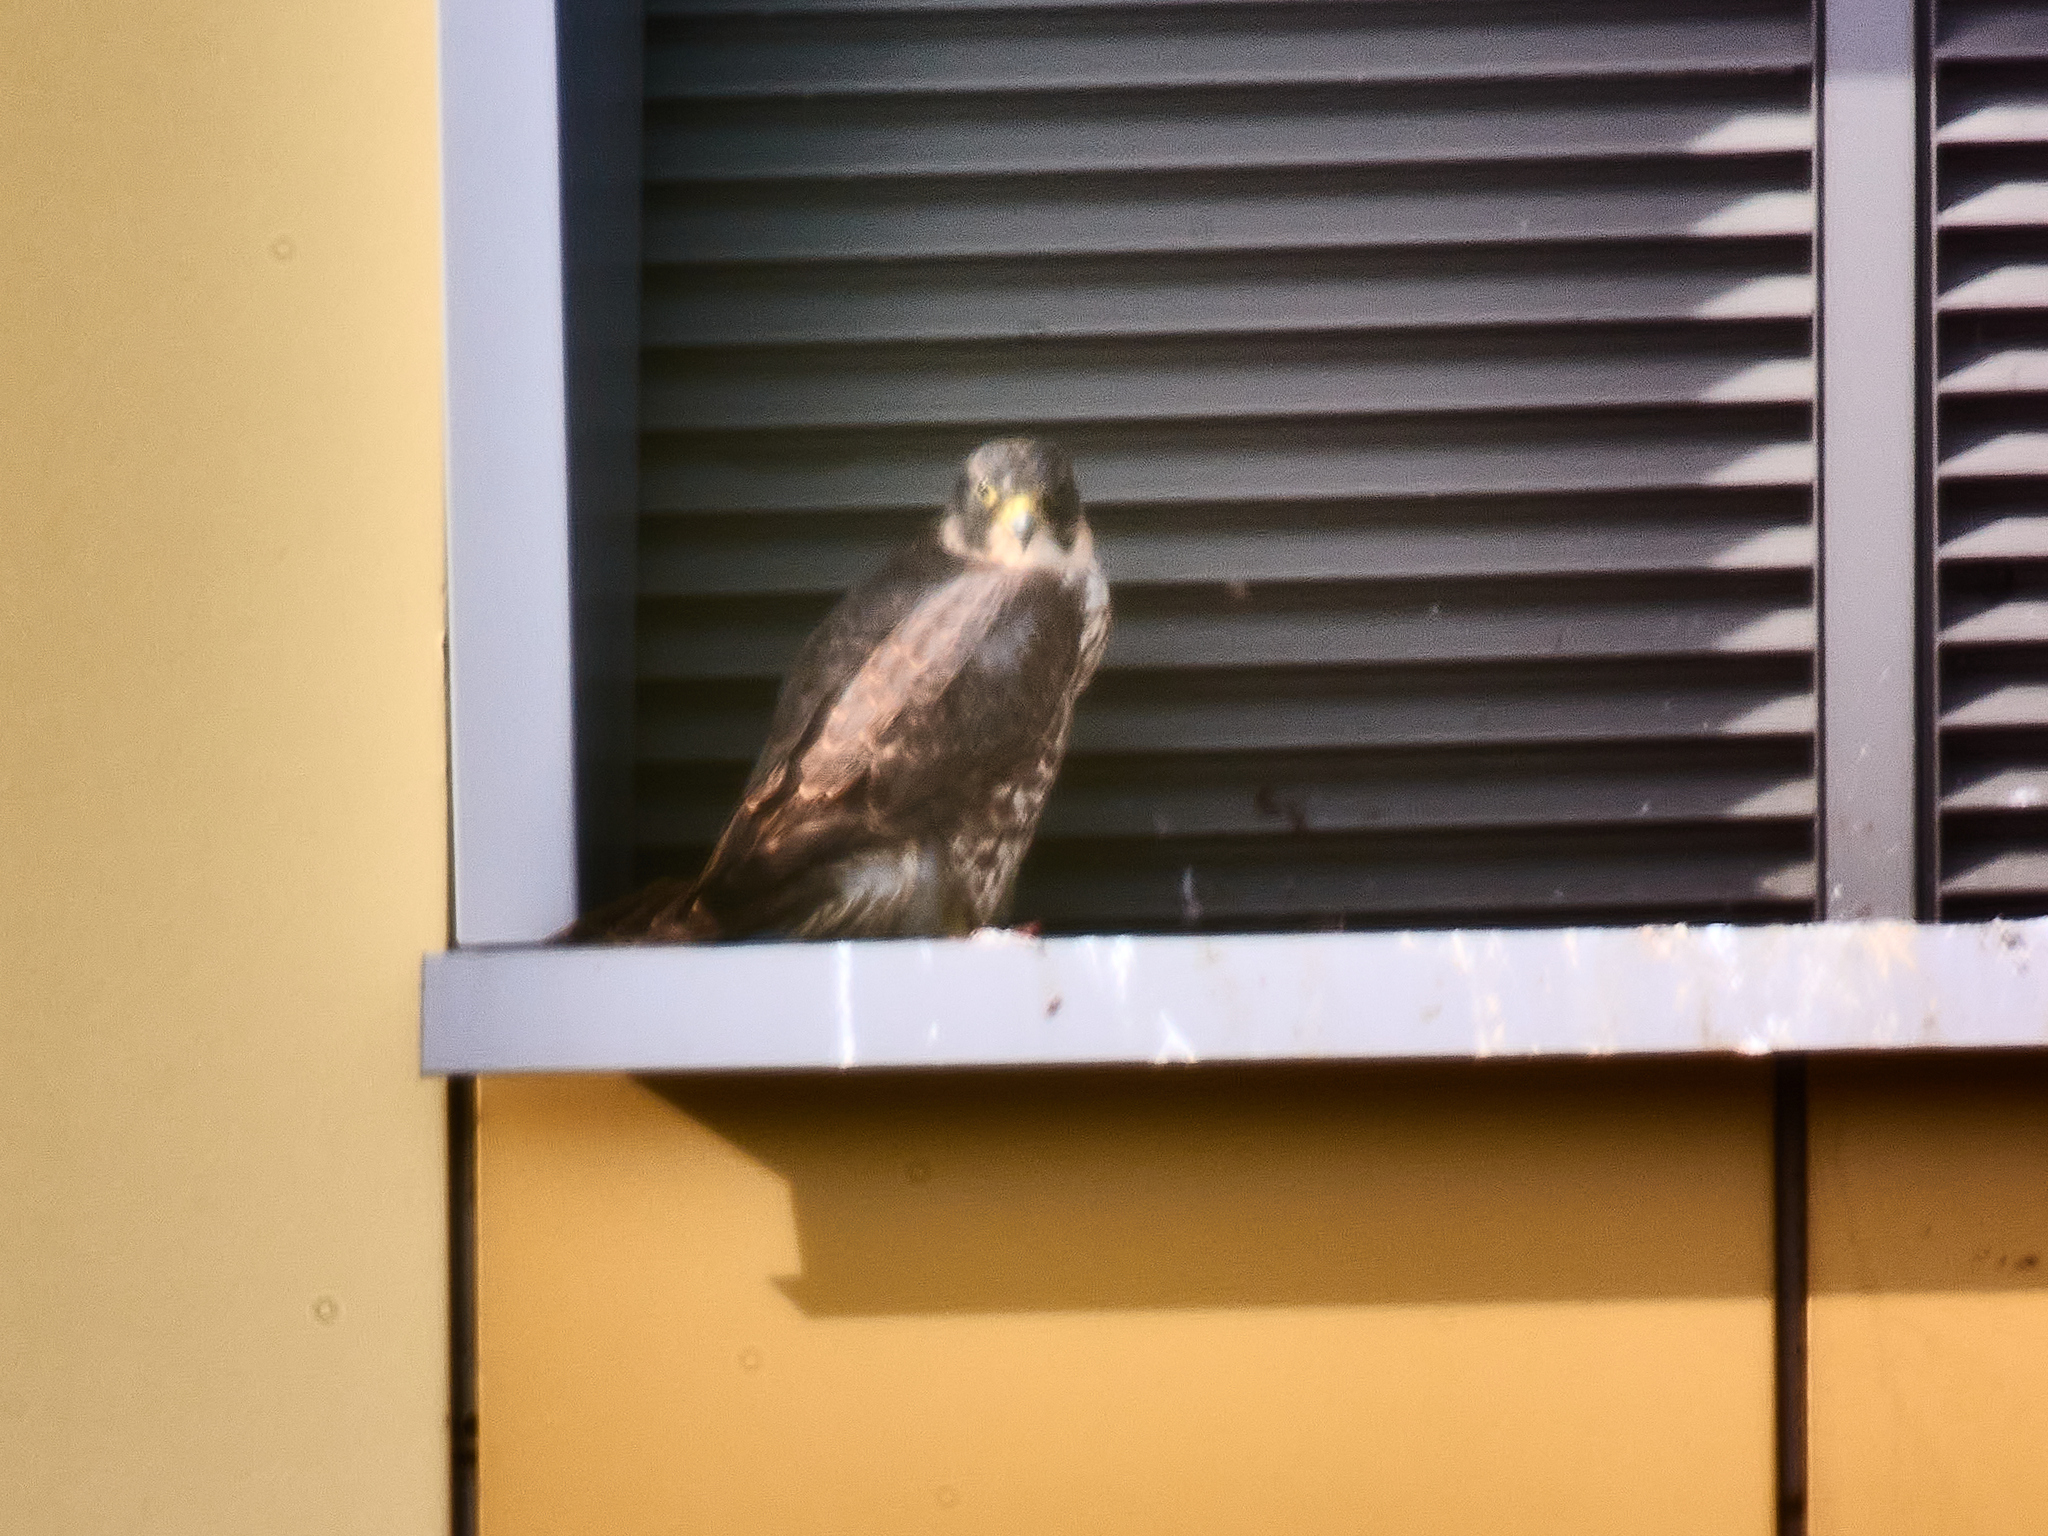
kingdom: Animalia
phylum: Chordata
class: Aves
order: Falconiformes
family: Falconidae
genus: Falco
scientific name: Falco peregrinus
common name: Peregrine falcon
